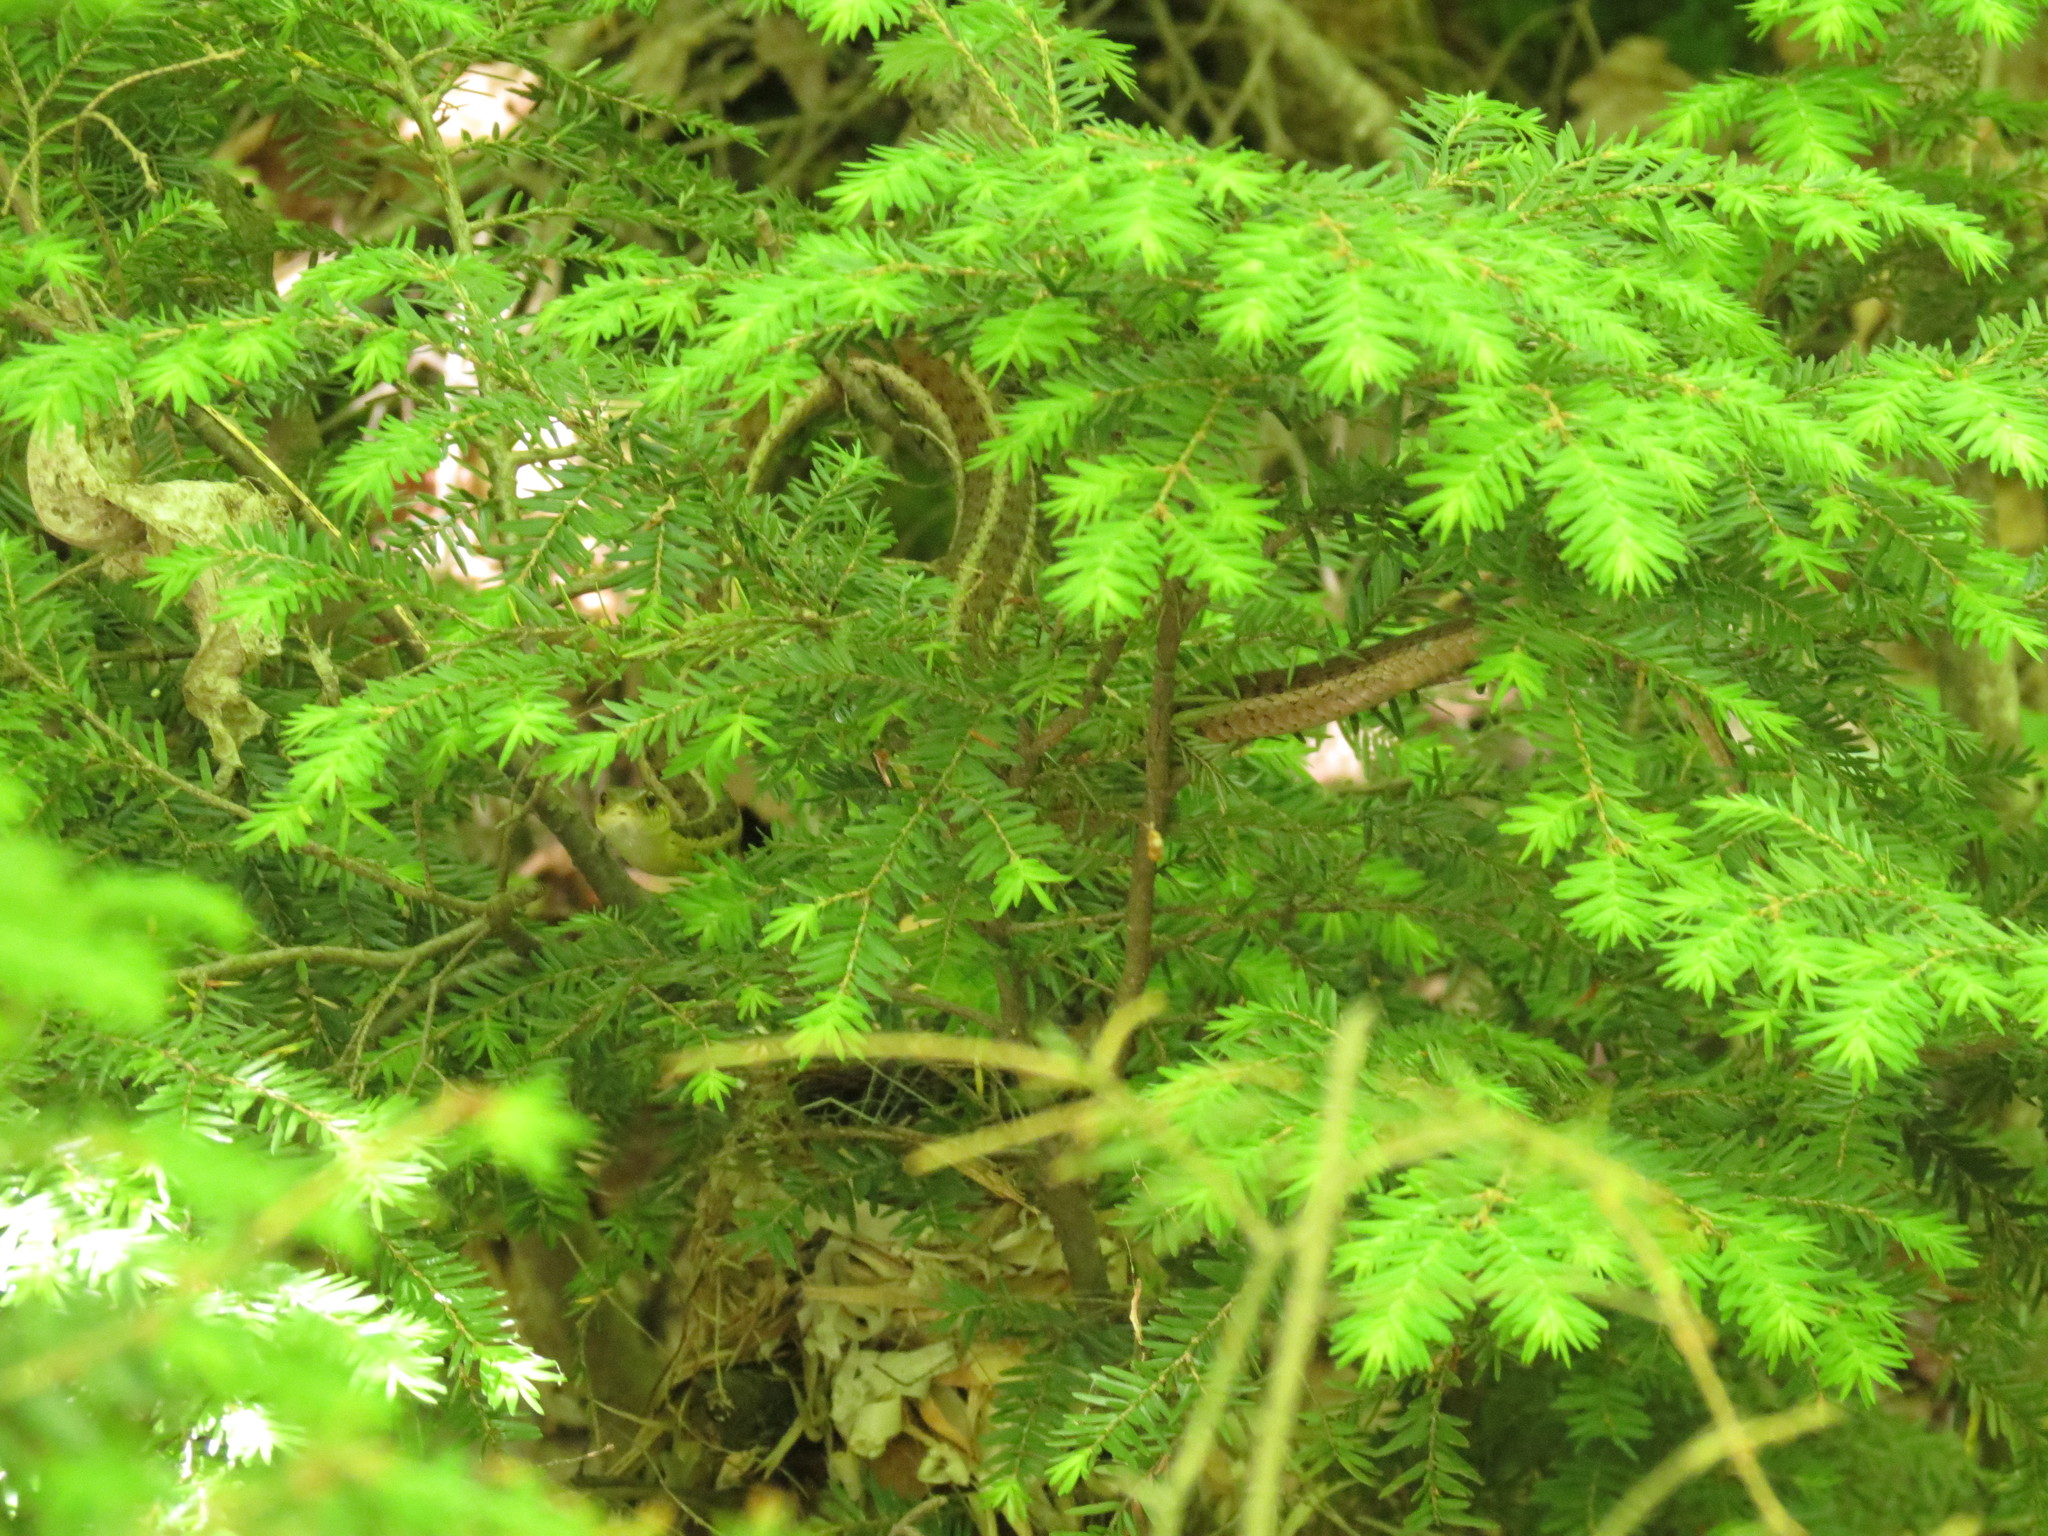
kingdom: Animalia
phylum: Chordata
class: Squamata
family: Colubridae
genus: Thamnophis
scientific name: Thamnophis sirtalis
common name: Common garter snake
